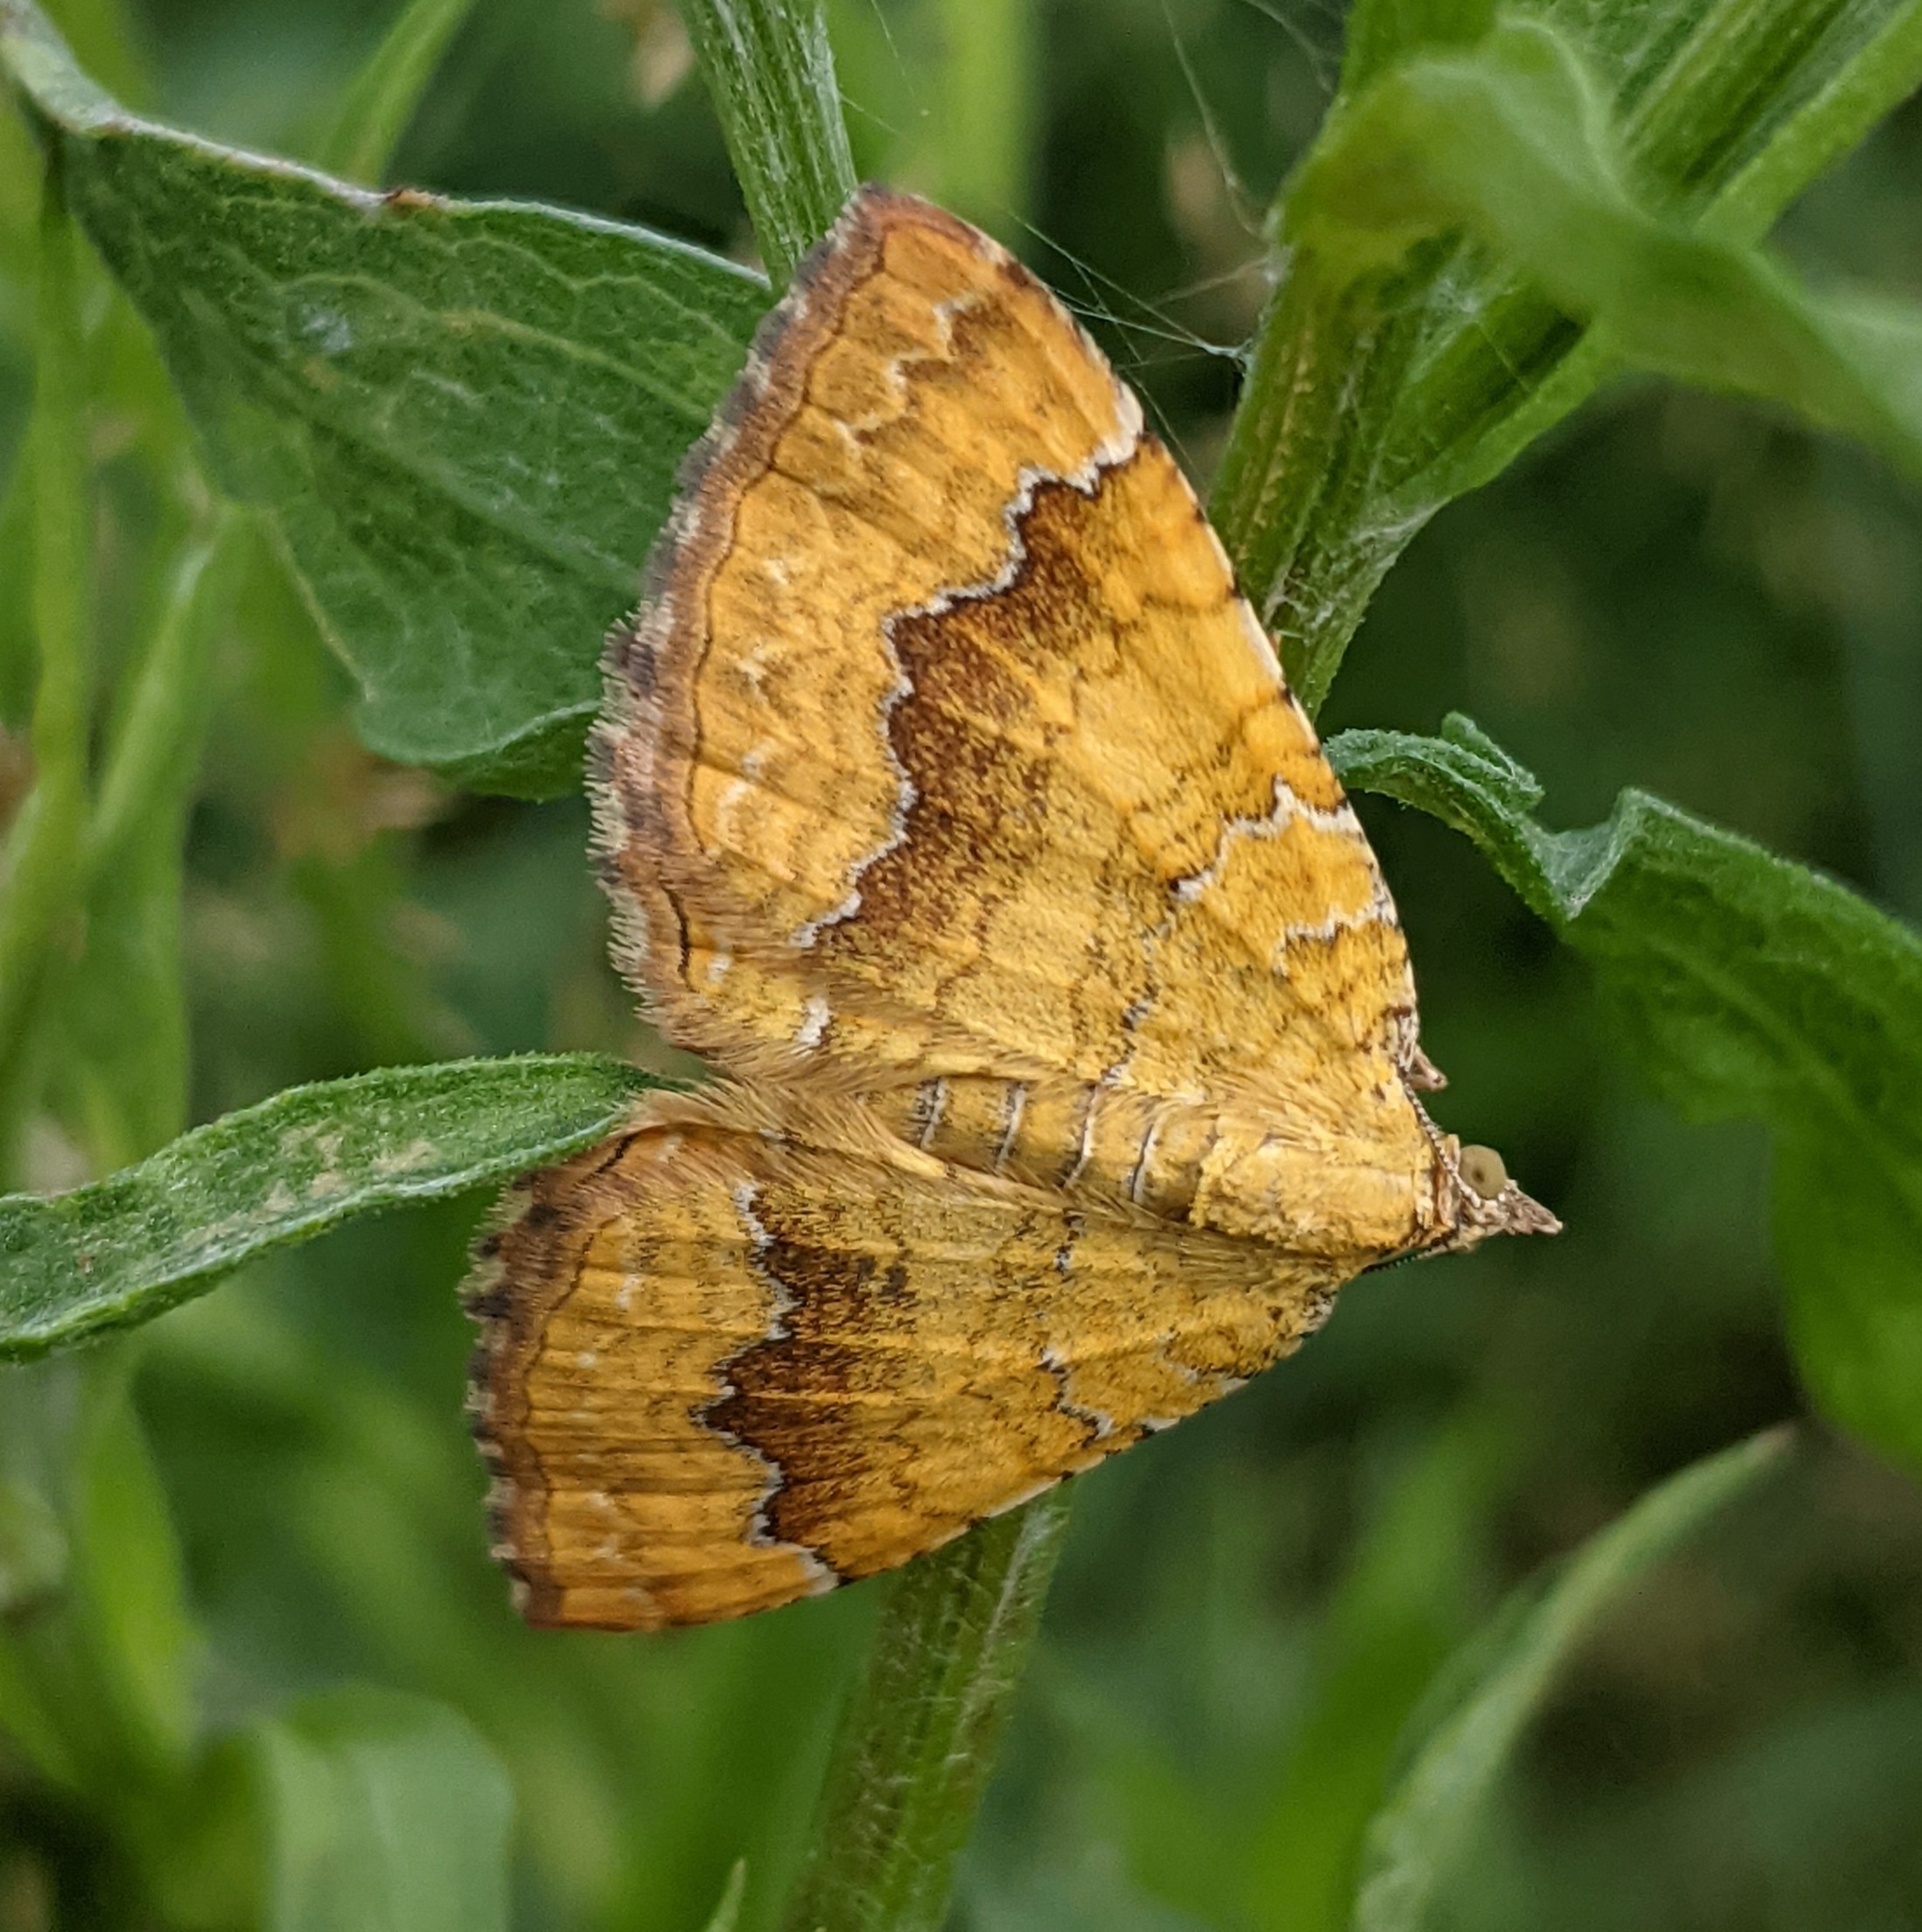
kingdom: Animalia
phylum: Arthropoda
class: Insecta
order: Lepidoptera
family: Geometridae
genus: Camptogramma
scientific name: Camptogramma bilineata
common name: Yellow shell
